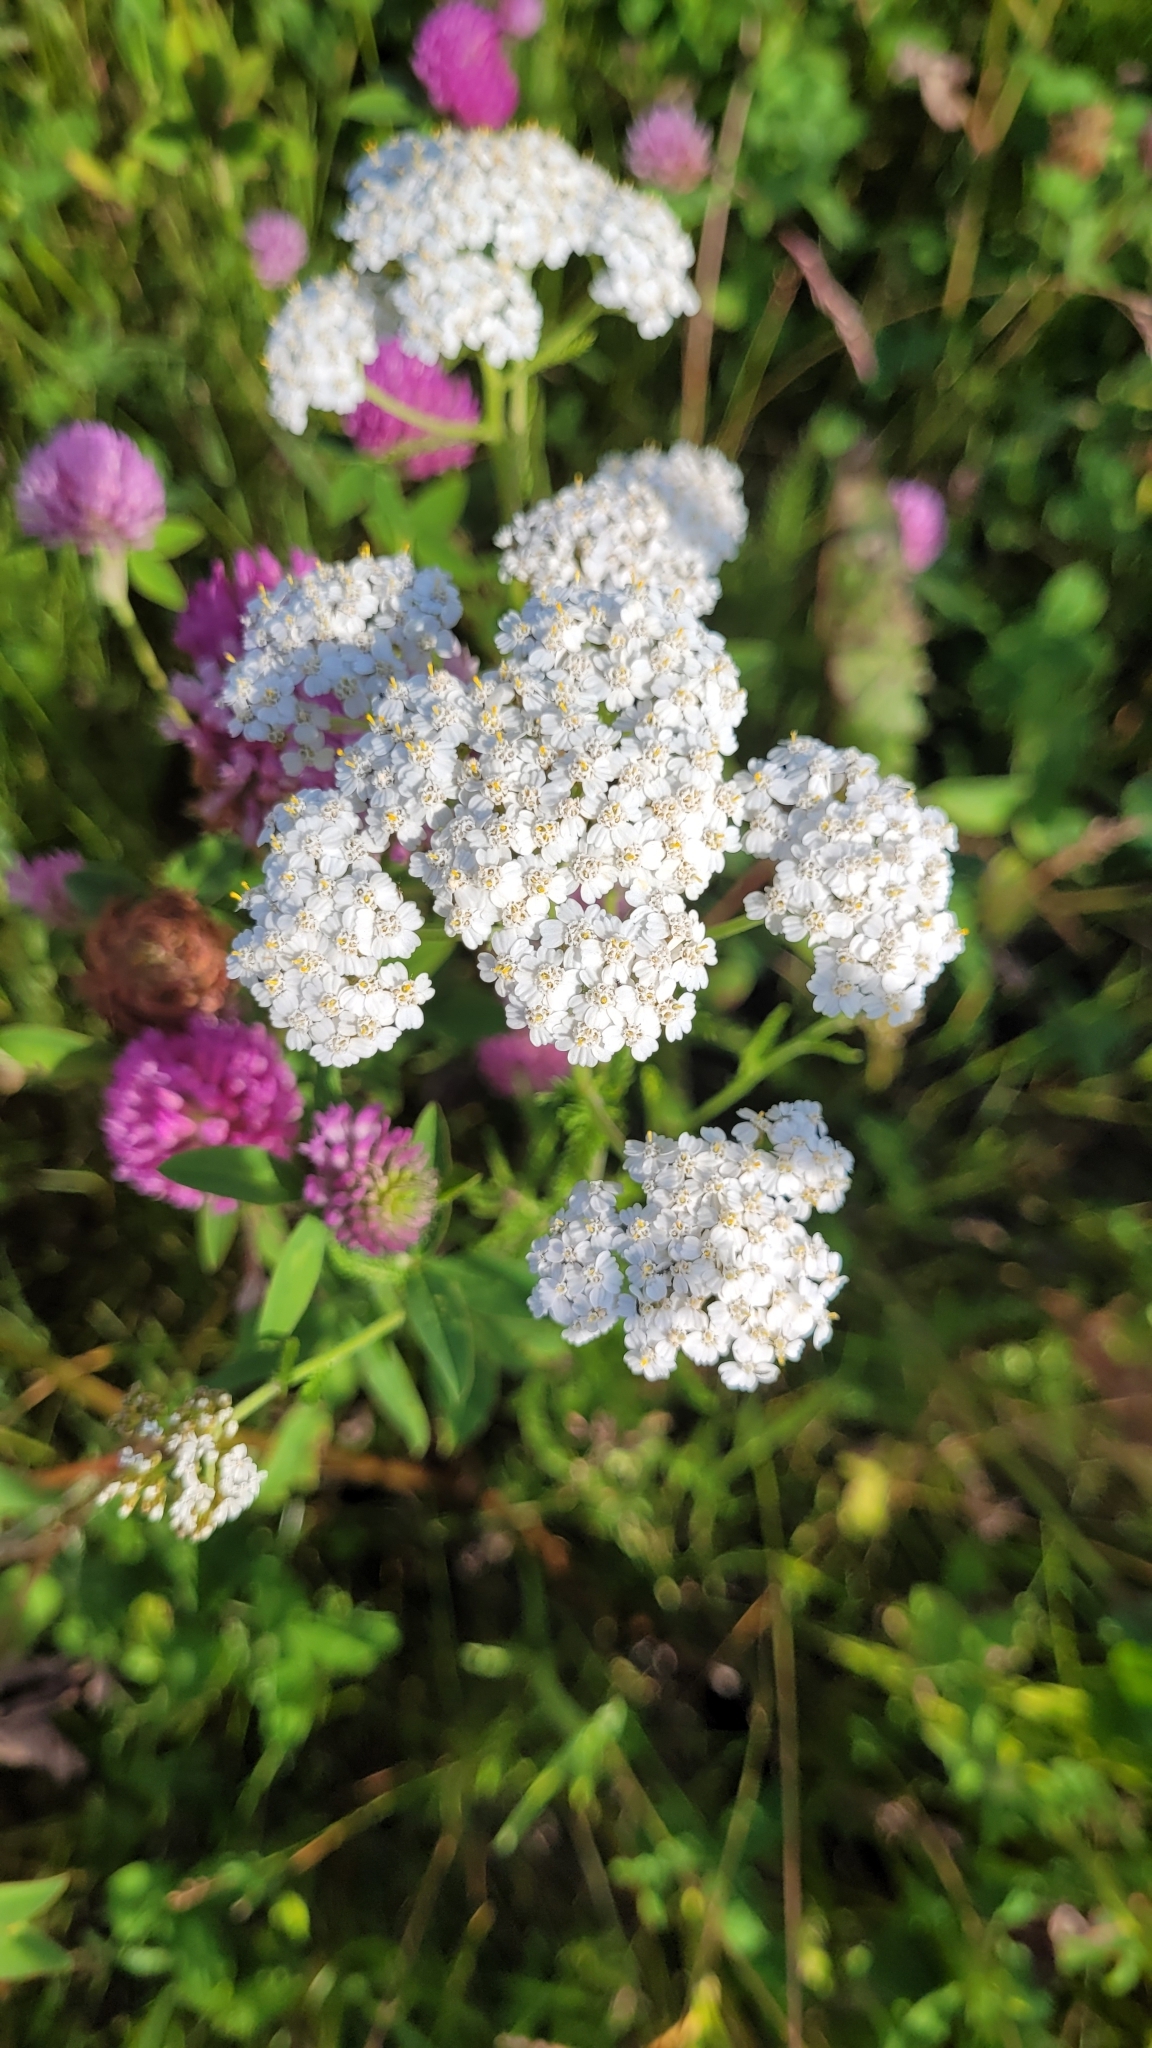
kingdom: Plantae
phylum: Tracheophyta
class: Magnoliopsida
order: Asterales
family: Asteraceae
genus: Achillea
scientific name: Achillea millefolium
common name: Yarrow
